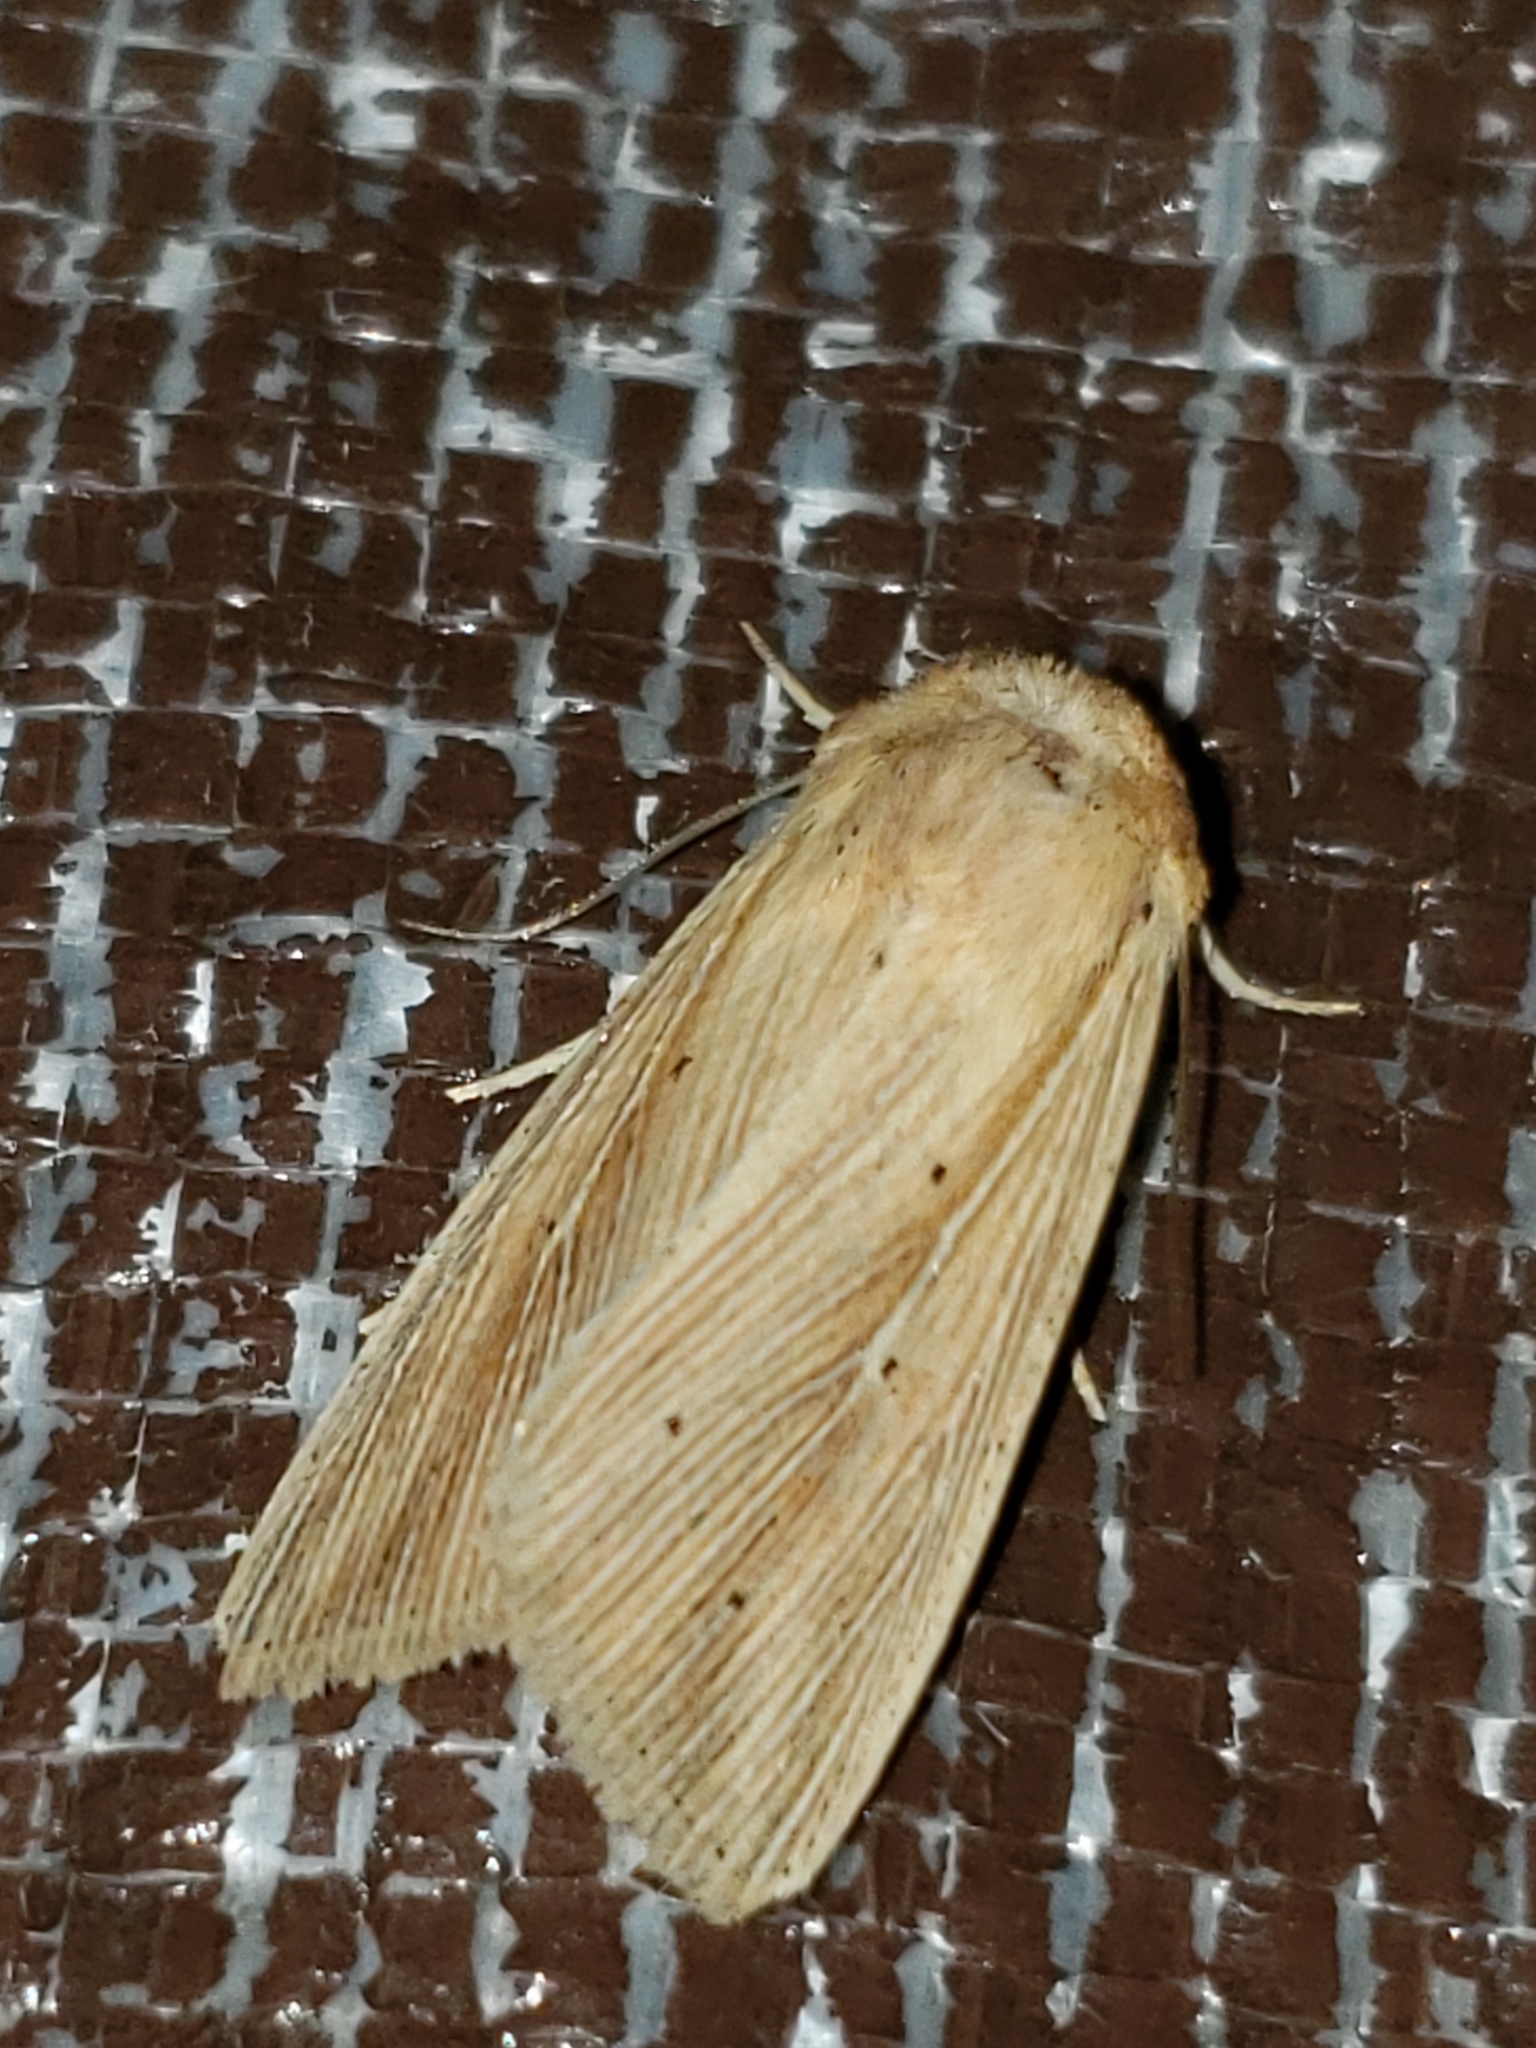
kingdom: Animalia
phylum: Arthropoda
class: Insecta
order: Lepidoptera
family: Noctuidae
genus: Leucania
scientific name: Leucania adjuta
